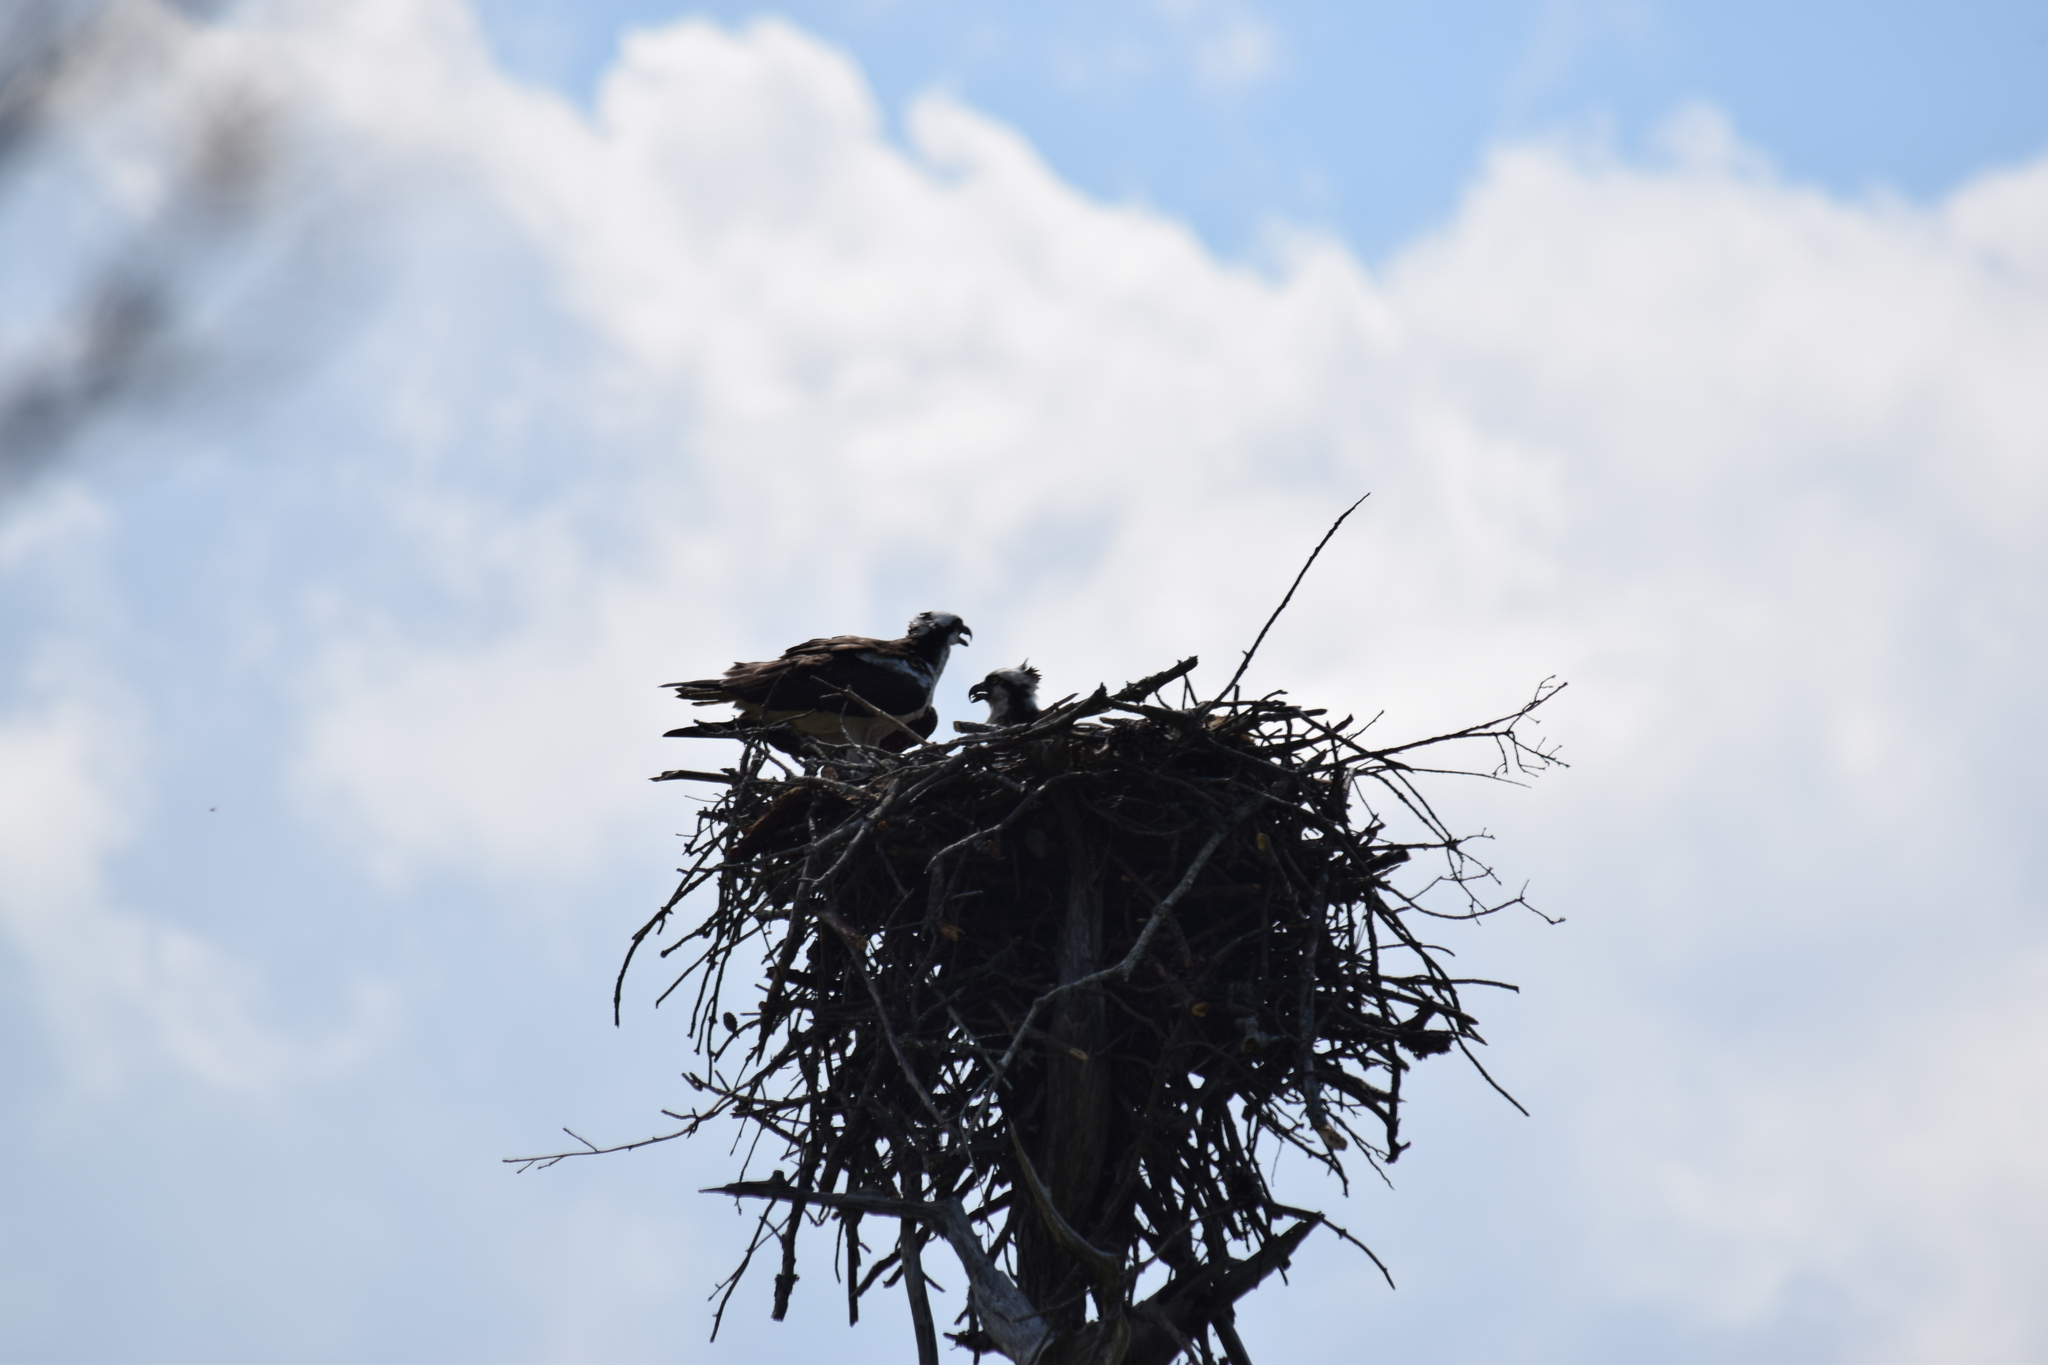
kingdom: Animalia
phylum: Chordata
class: Aves
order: Accipitriformes
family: Pandionidae
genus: Pandion
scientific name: Pandion haliaetus
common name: Osprey
